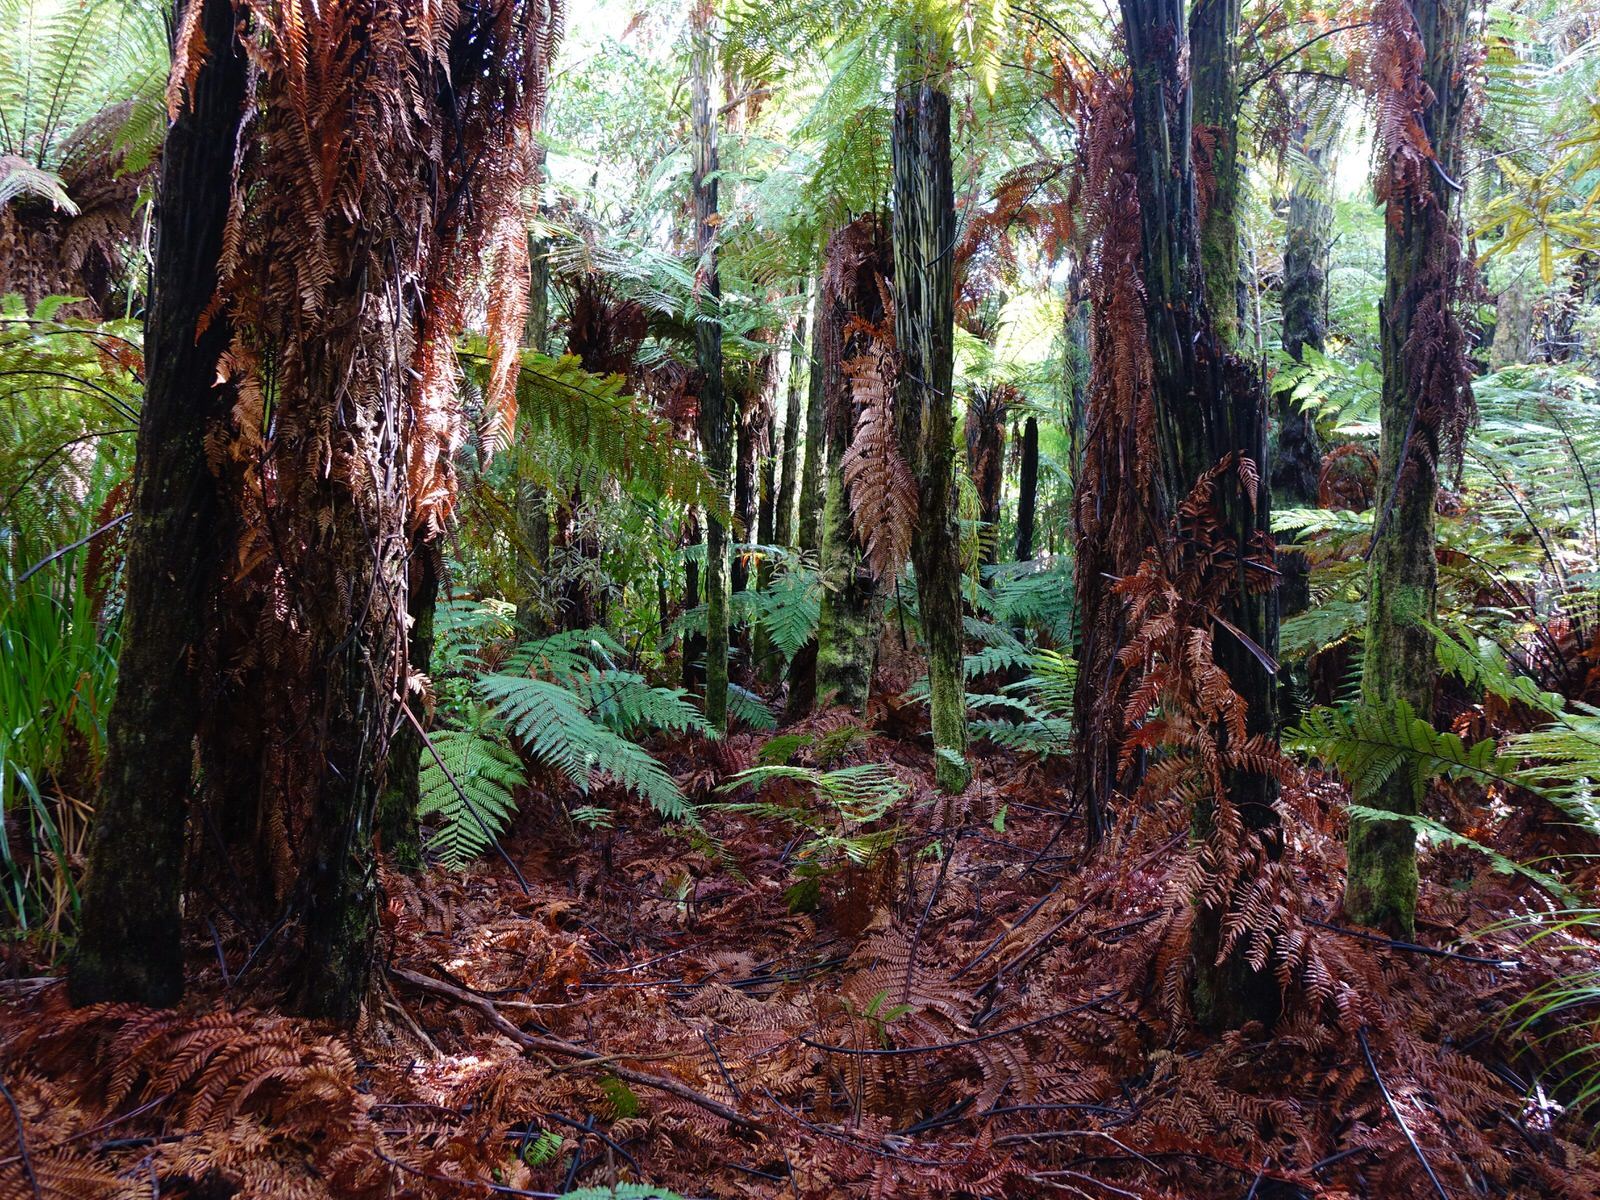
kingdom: Plantae
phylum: Tracheophyta
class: Polypodiopsida
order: Cyatheales
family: Dicksoniaceae
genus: Dicksonia
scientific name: Dicksonia squarrosa
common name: Hard treefern
